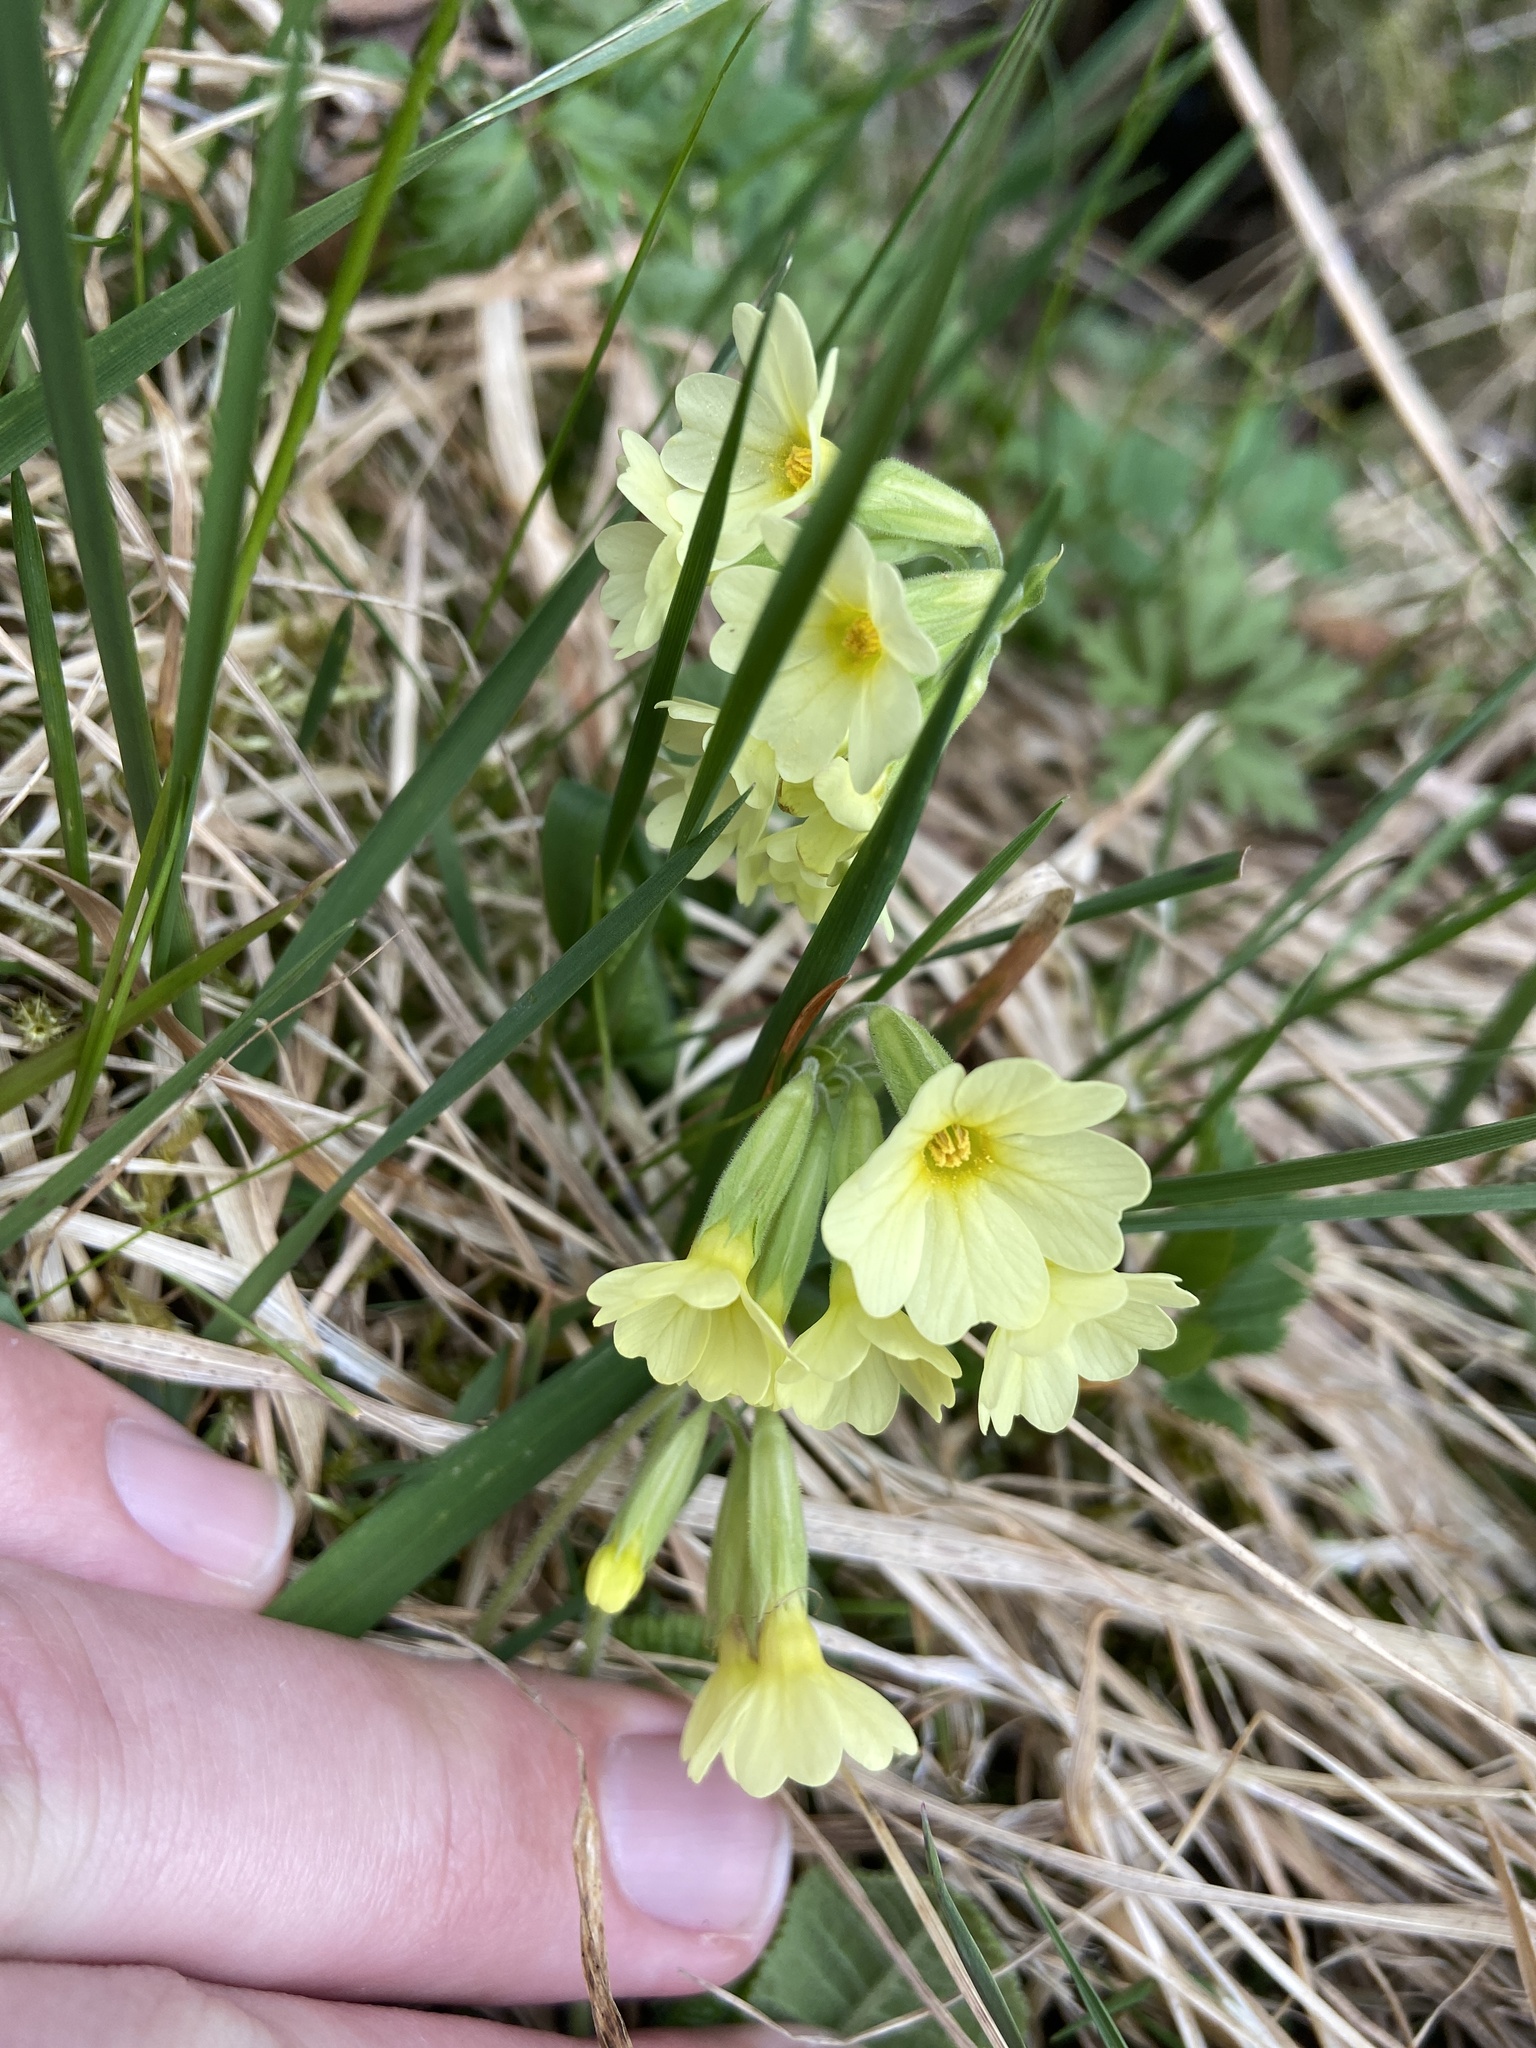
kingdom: Plantae
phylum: Tracheophyta
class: Magnoliopsida
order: Ericales
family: Primulaceae
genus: Primula
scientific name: Primula elatior
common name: Oxlip
